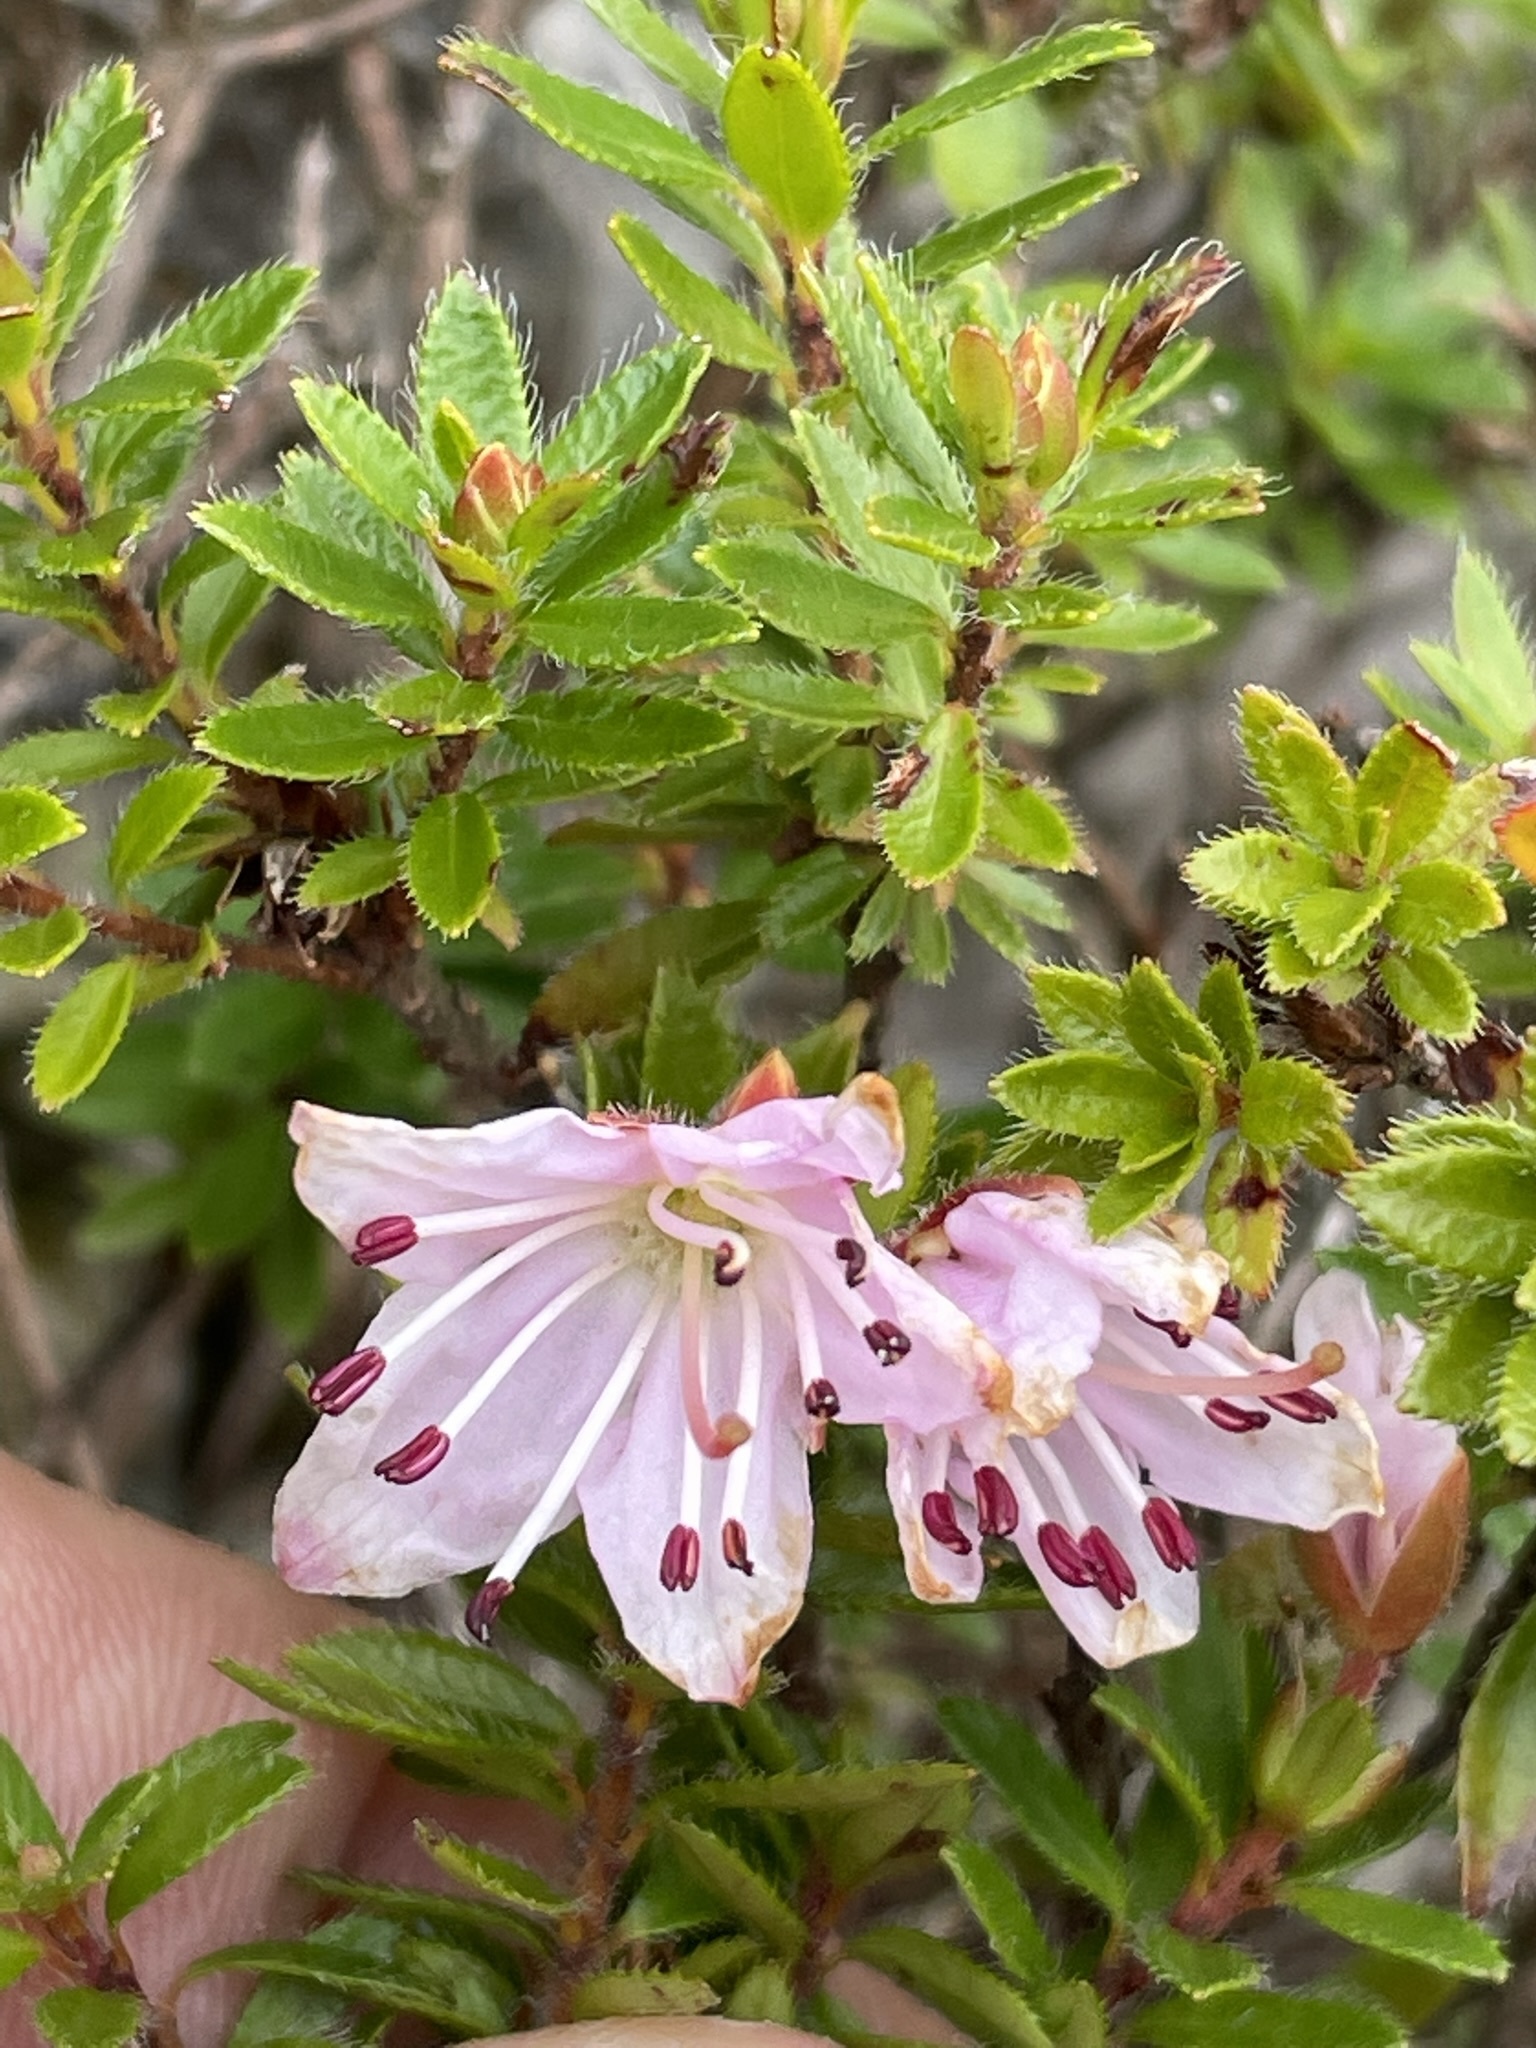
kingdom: Plantae
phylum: Tracheophyta
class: Magnoliopsida
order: Ericales
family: Ericaceae
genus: Rhodothamnus
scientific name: Rhodothamnus chamaecistus
